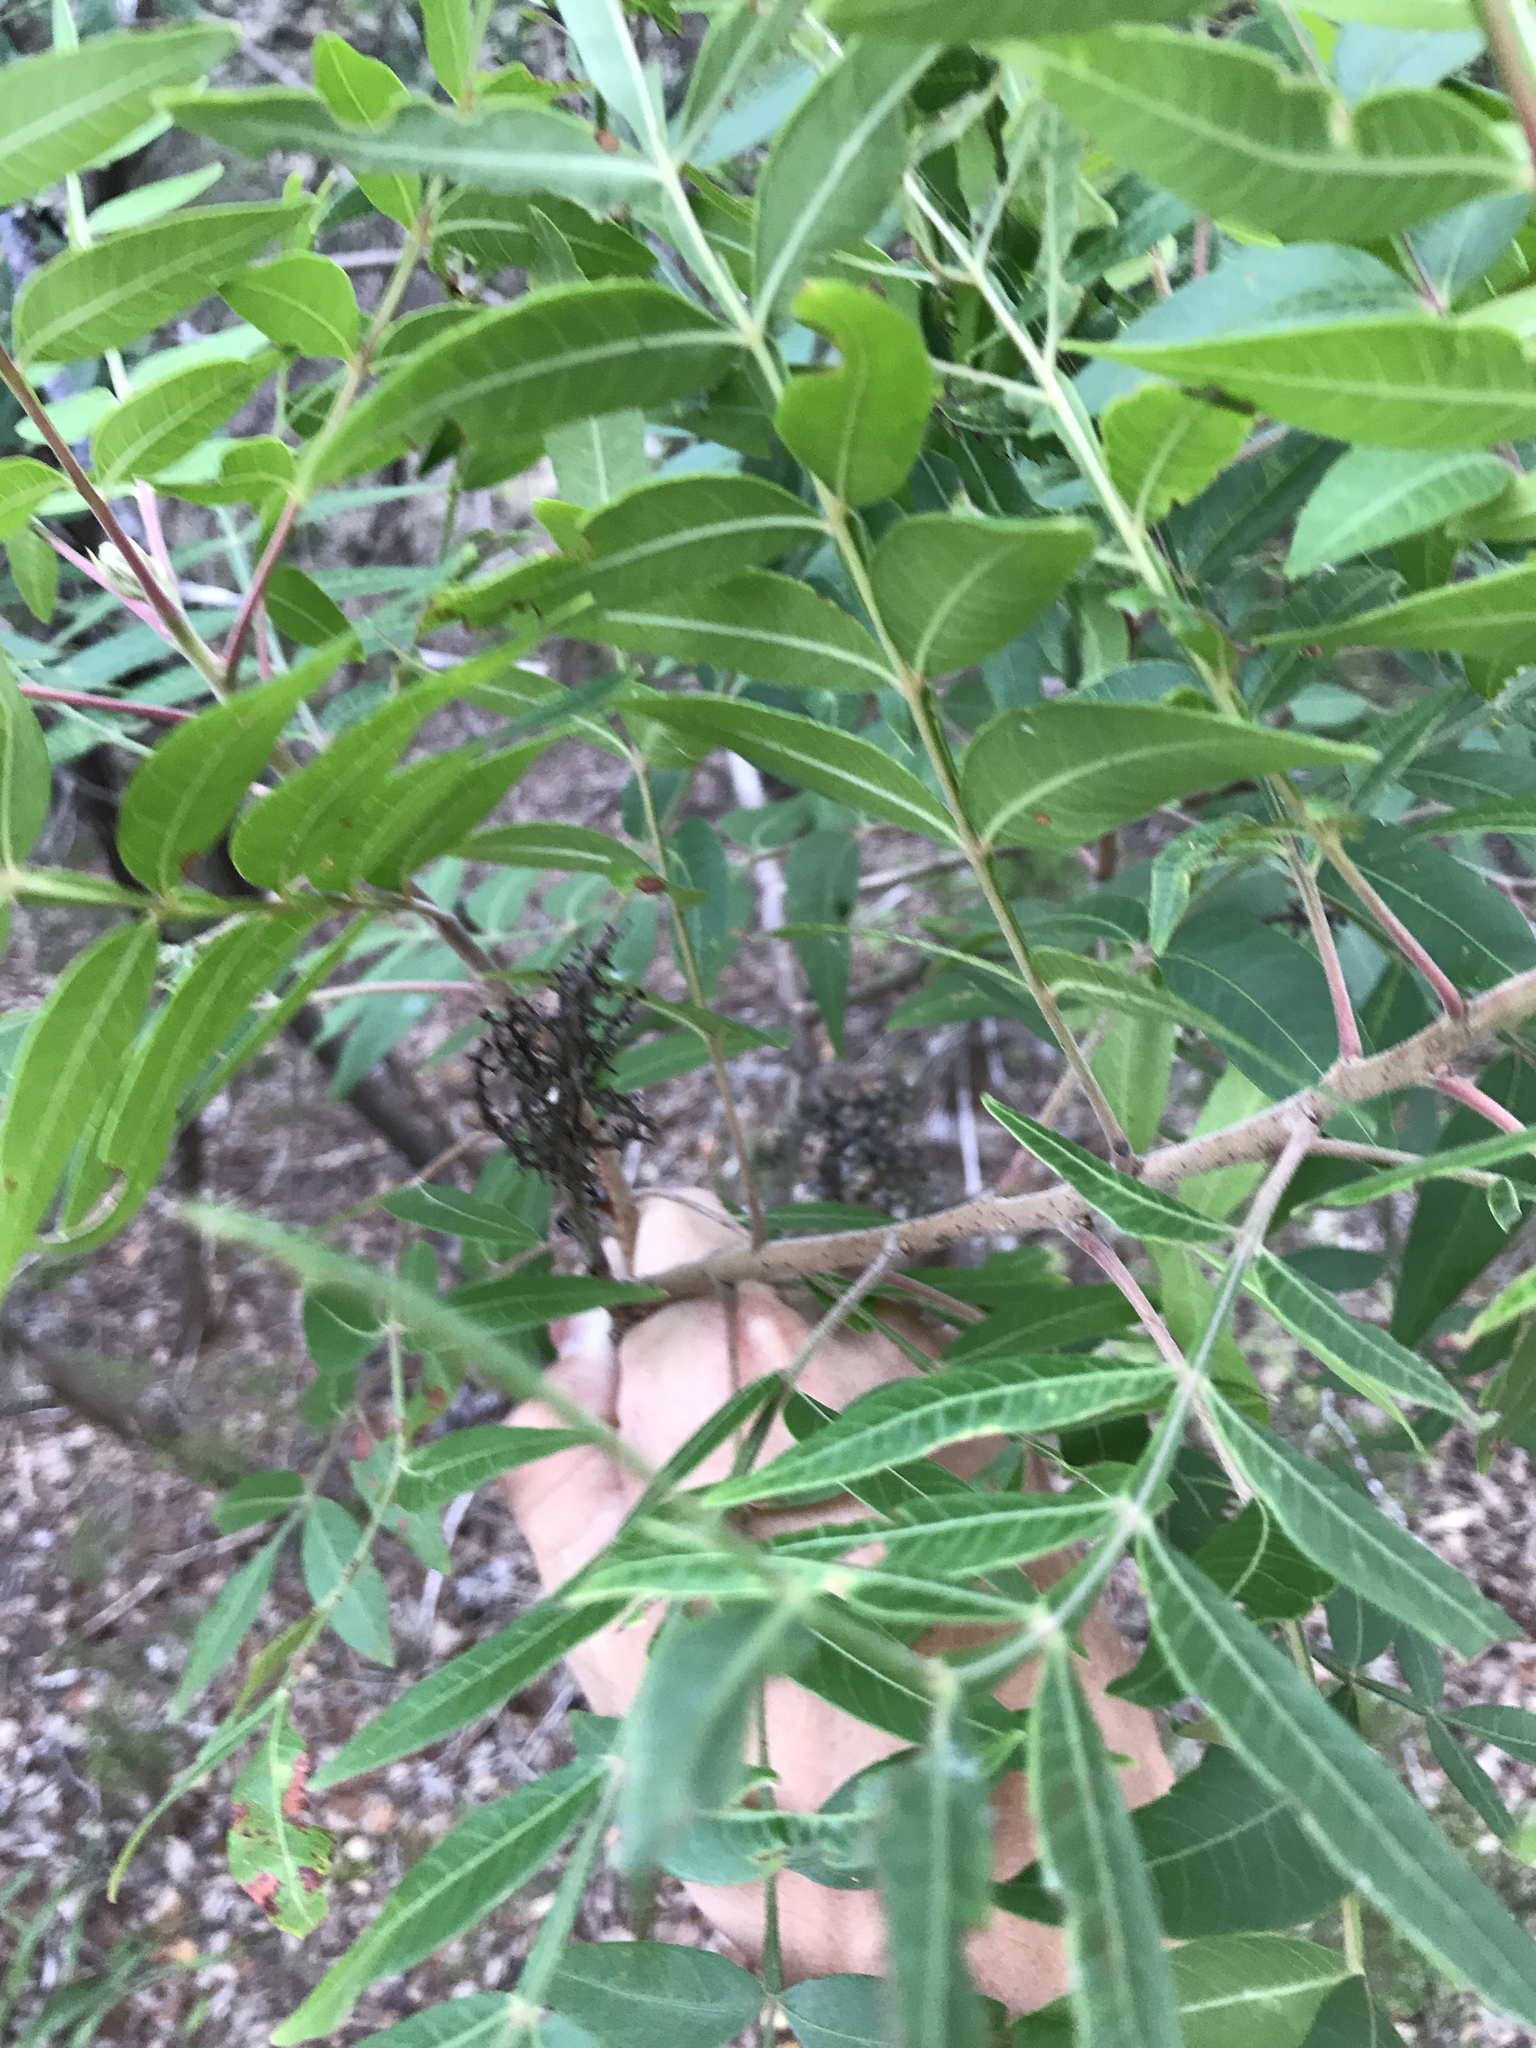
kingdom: Plantae
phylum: Tracheophyta
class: Magnoliopsida
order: Sapindales
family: Anacardiaceae
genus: Rhus
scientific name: Rhus lanceolata
